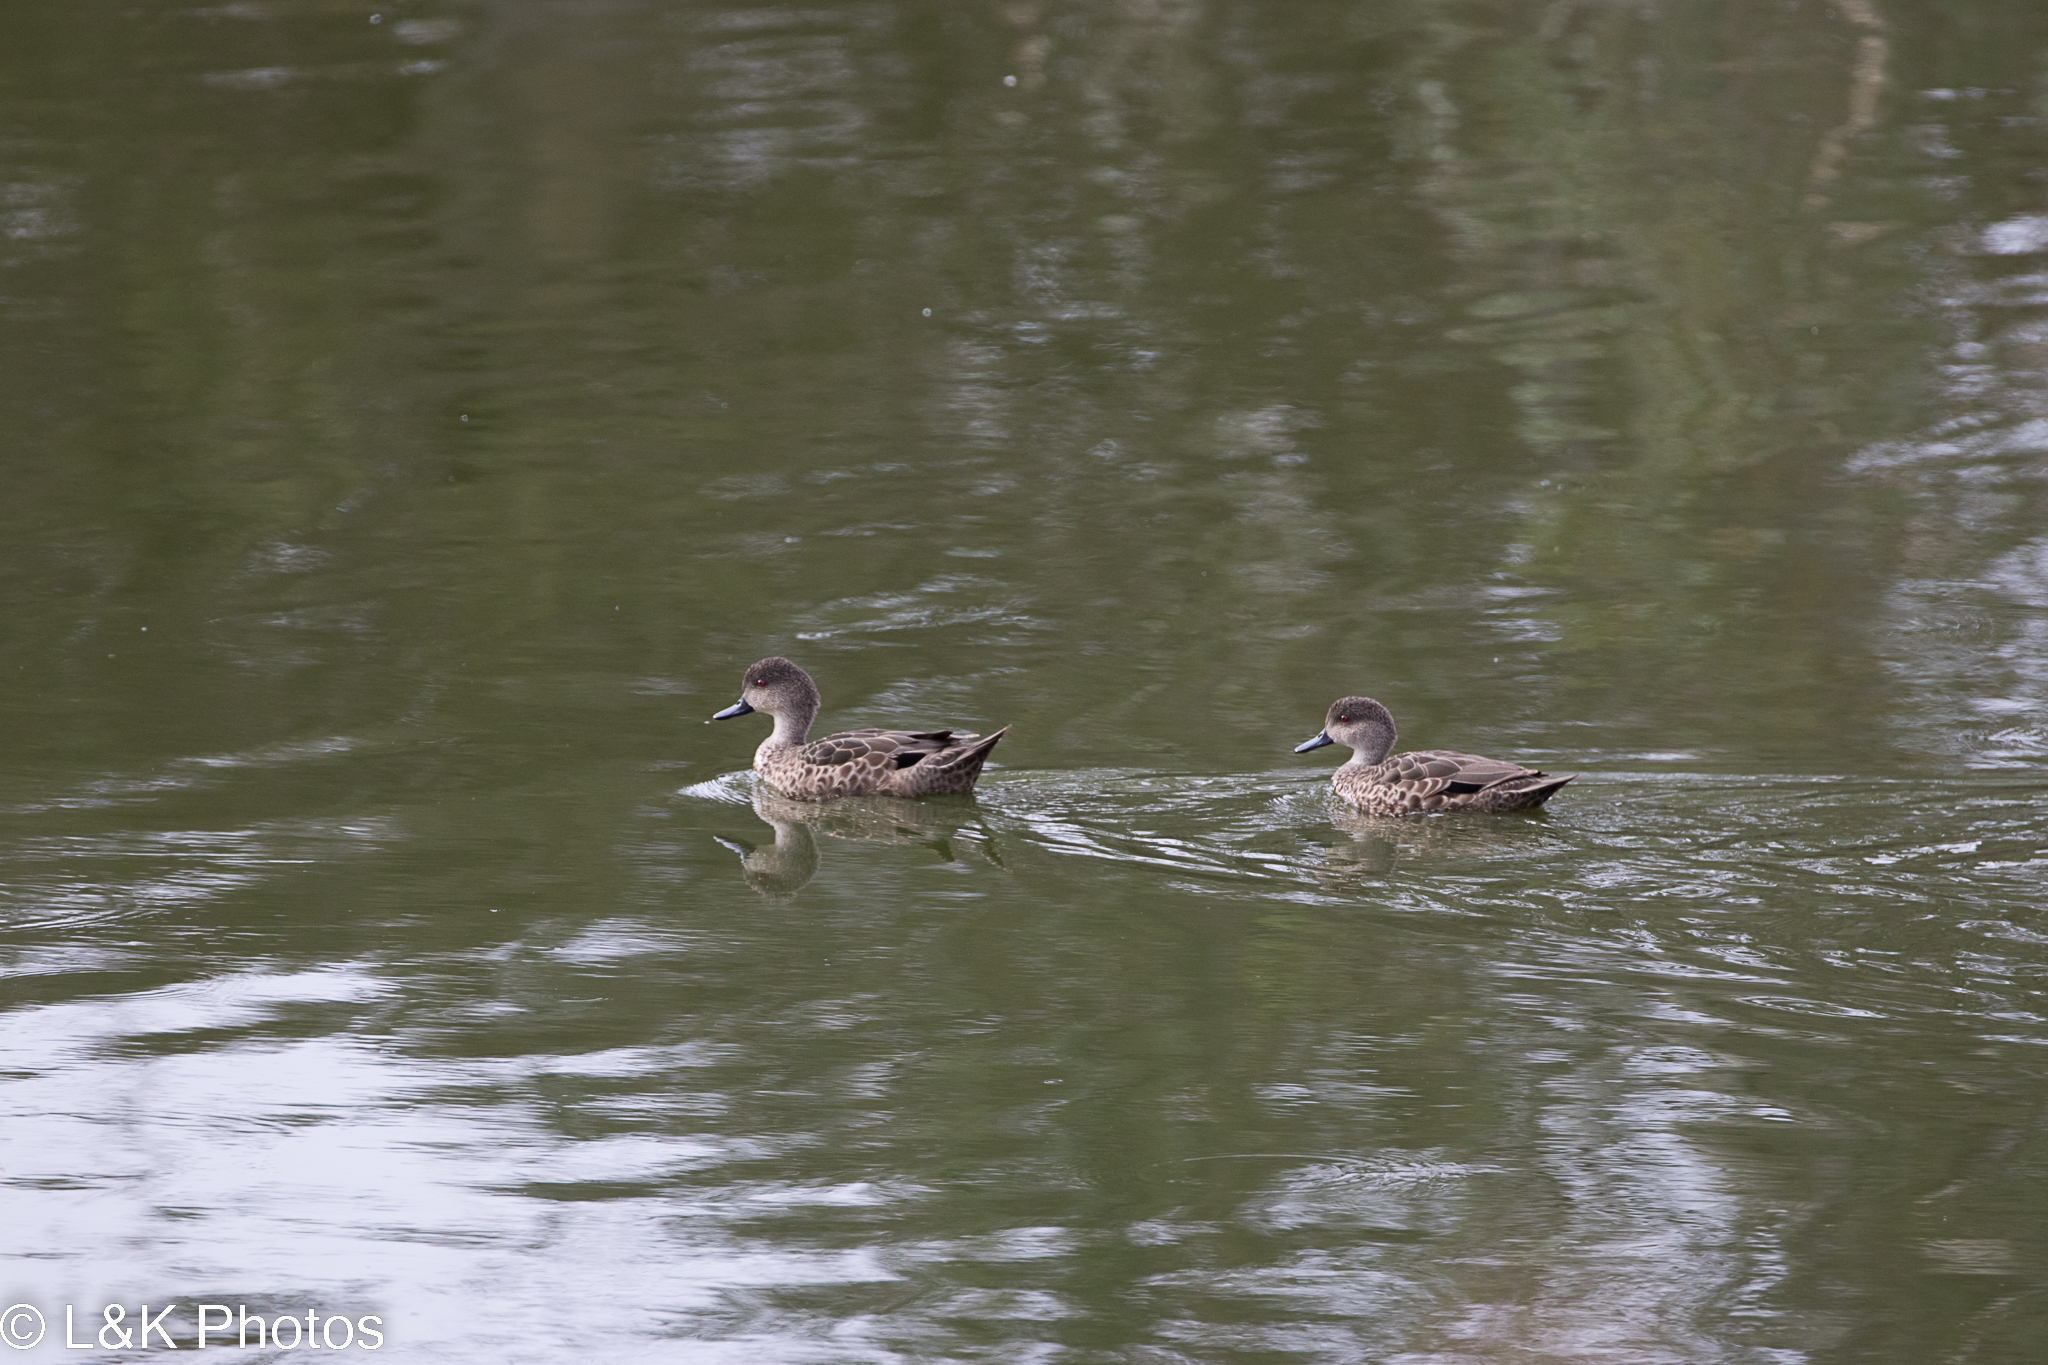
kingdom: Animalia
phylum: Chordata
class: Aves
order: Anseriformes
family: Anatidae
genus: Anas
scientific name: Anas gracilis
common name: Grey teal
